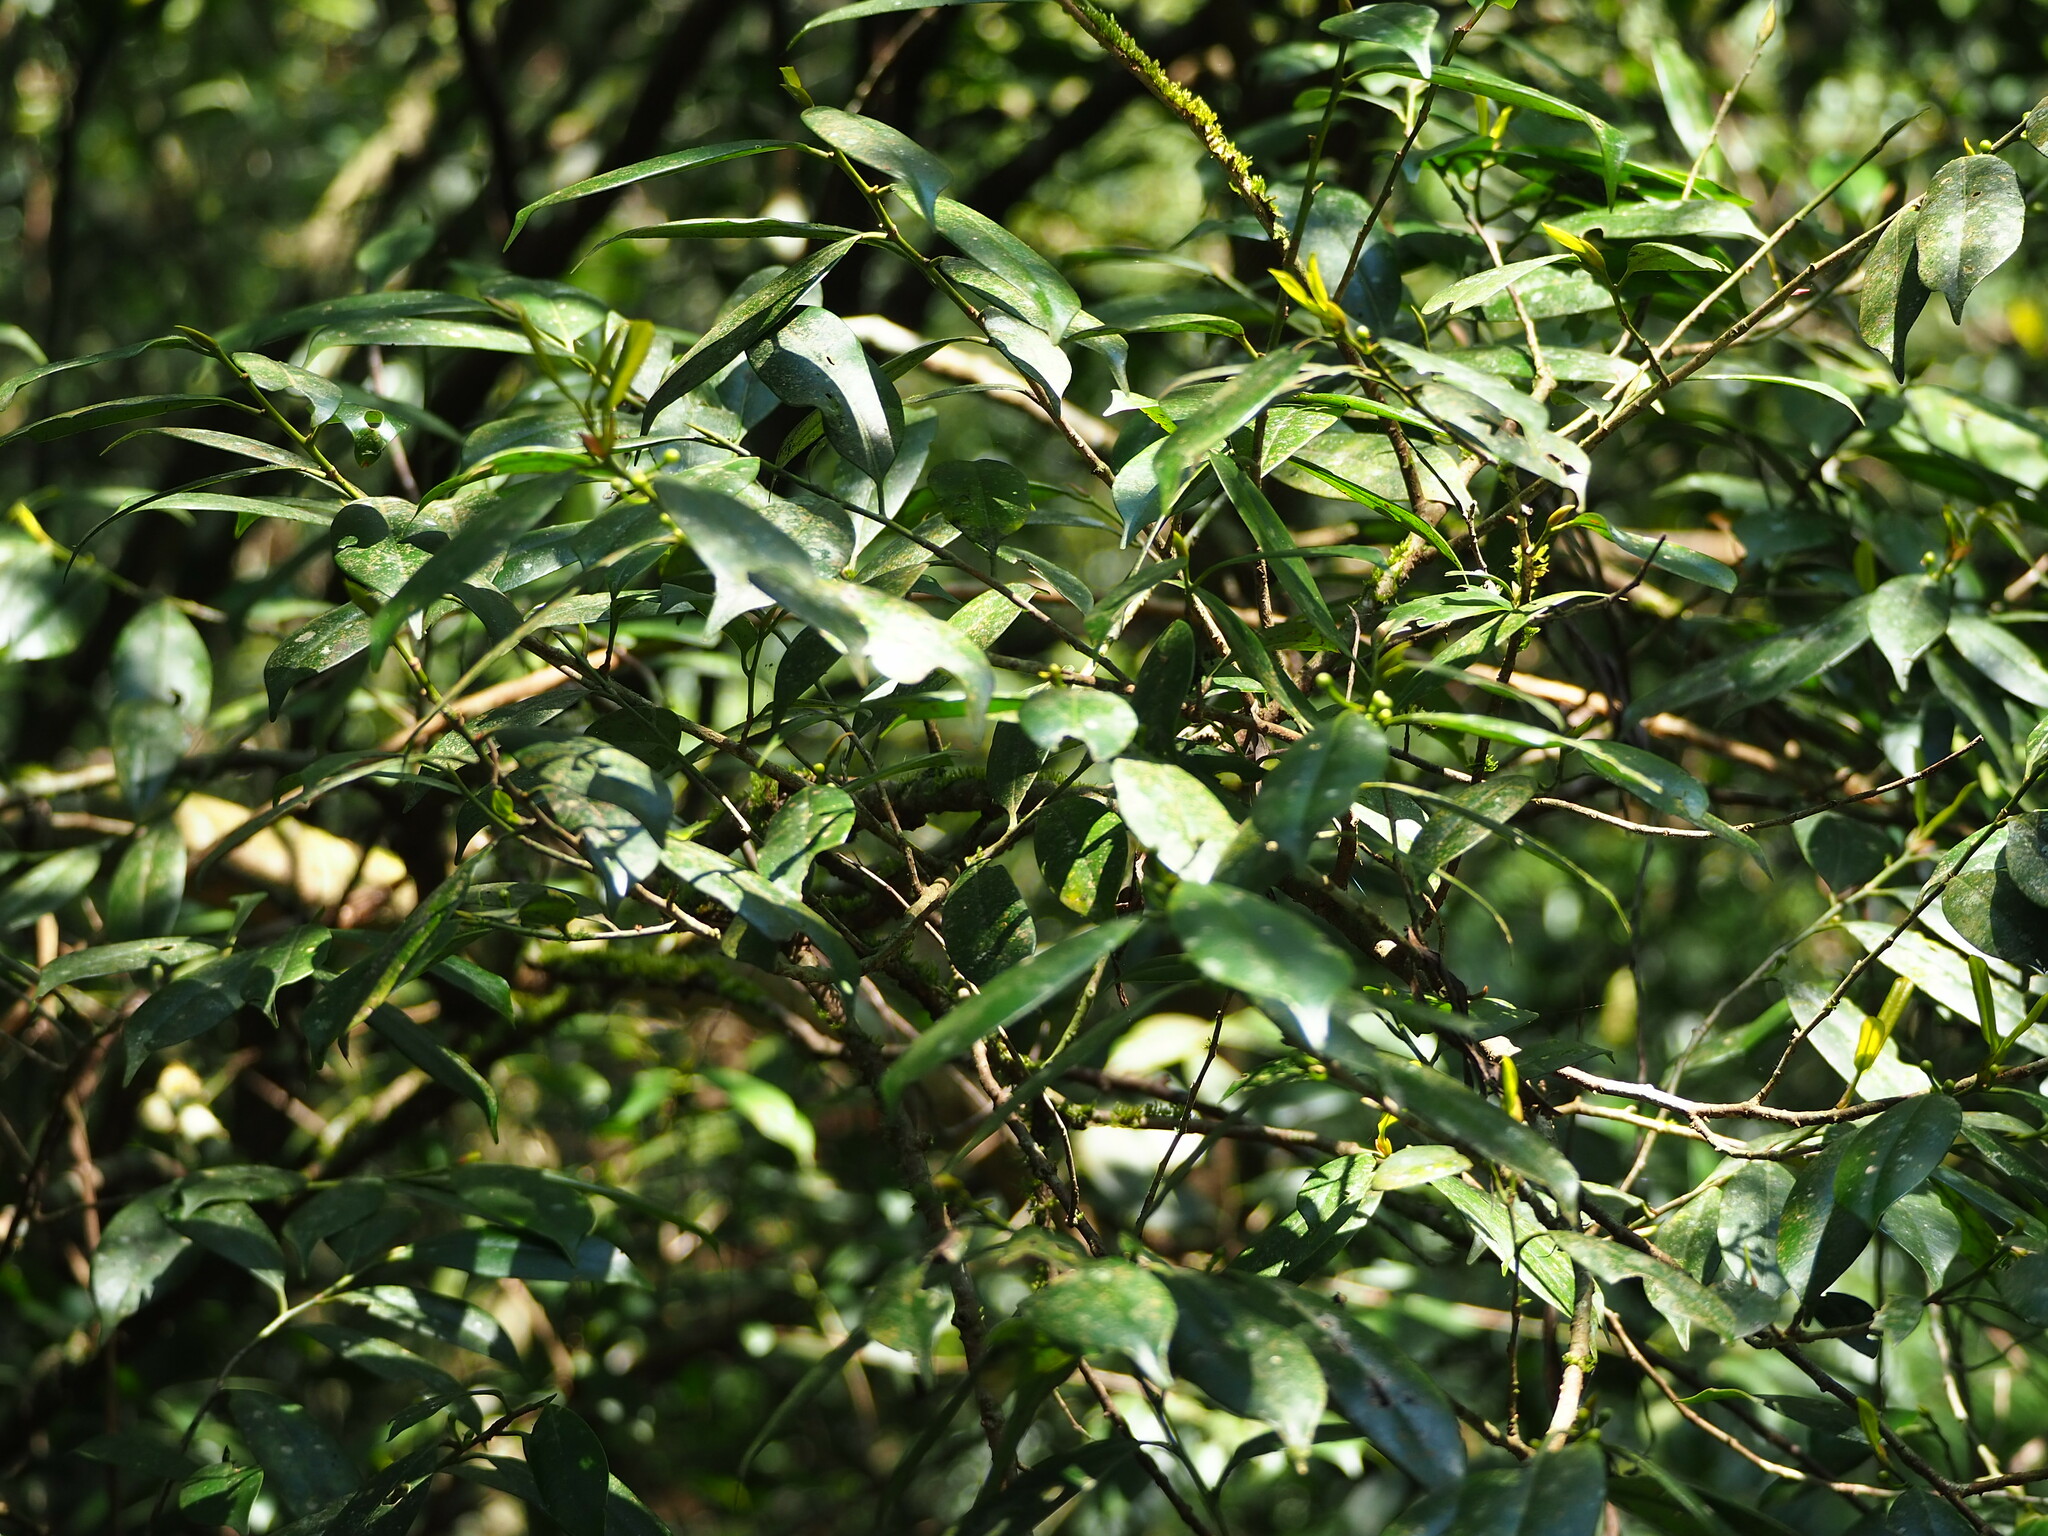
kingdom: Plantae
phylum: Tracheophyta
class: Magnoliopsida
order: Ericales
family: Pentaphylacaceae
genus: Cleyera
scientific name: Cleyera japonica
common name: Sakaki
